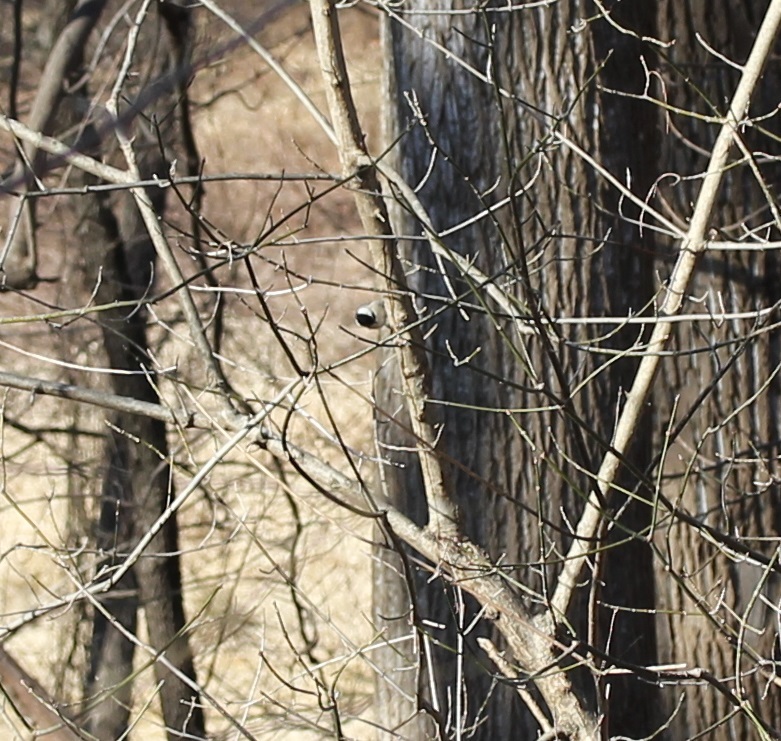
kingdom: Animalia
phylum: Chordata
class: Aves
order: Passeriformes
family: Paridae
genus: Poecile
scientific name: Poecile carolinensis
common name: Carolina chickadee
